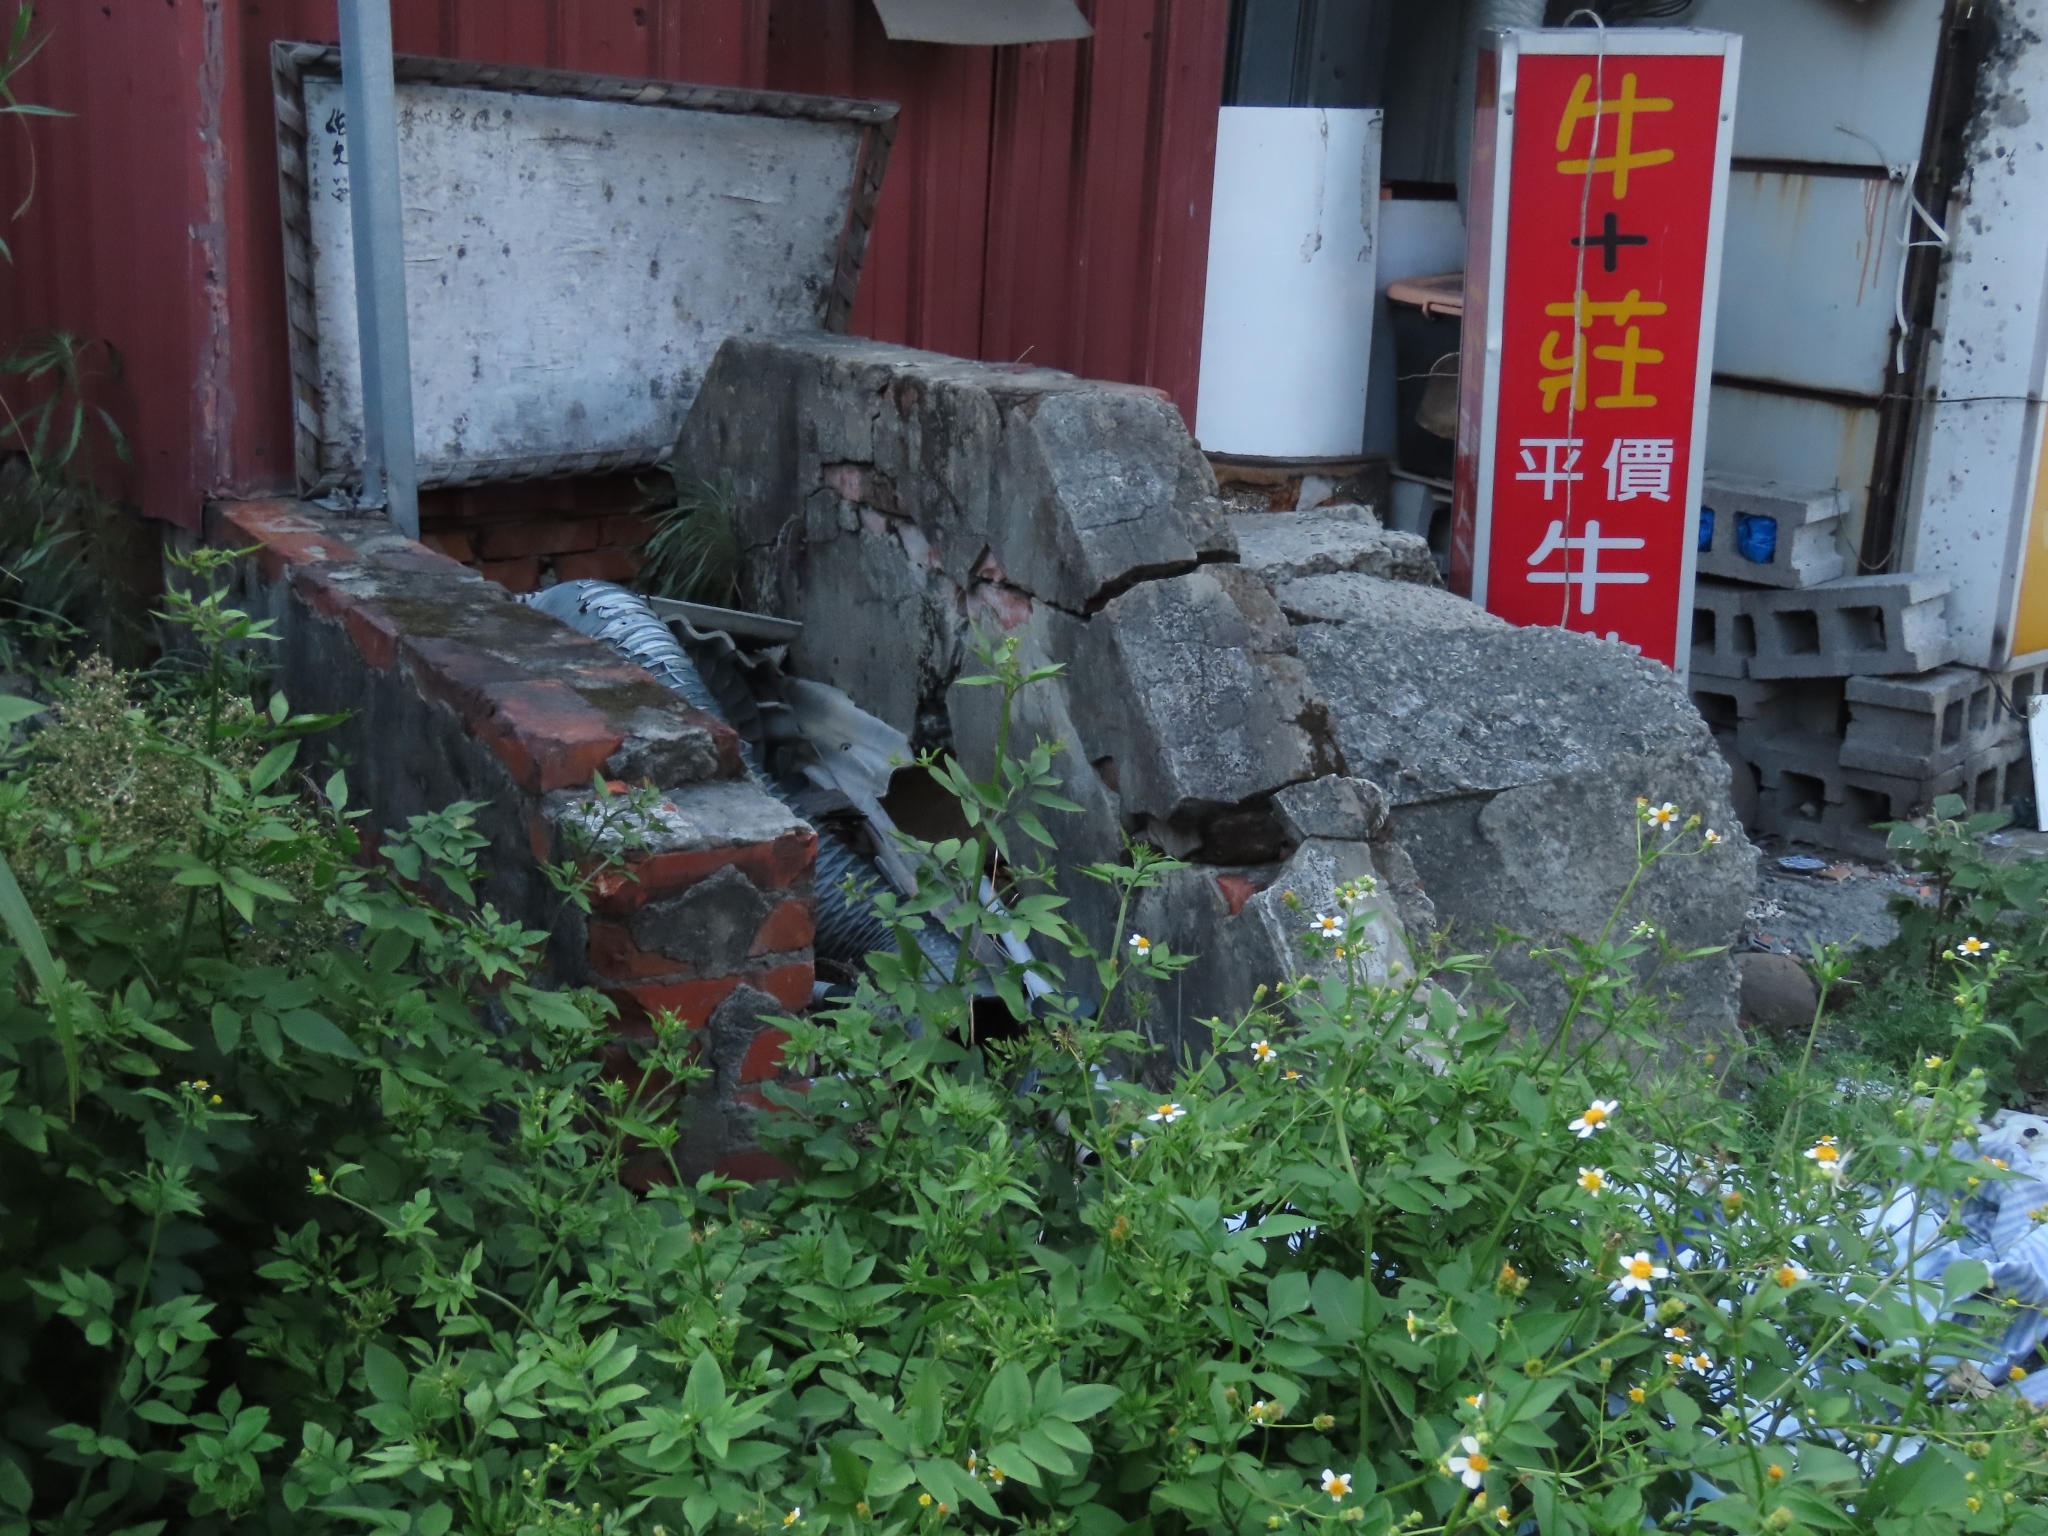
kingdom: Plantae
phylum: Tracheophyta
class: Magnoliopsida
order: Asterales
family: Asteraceae
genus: Bidens
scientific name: Bidens alba
